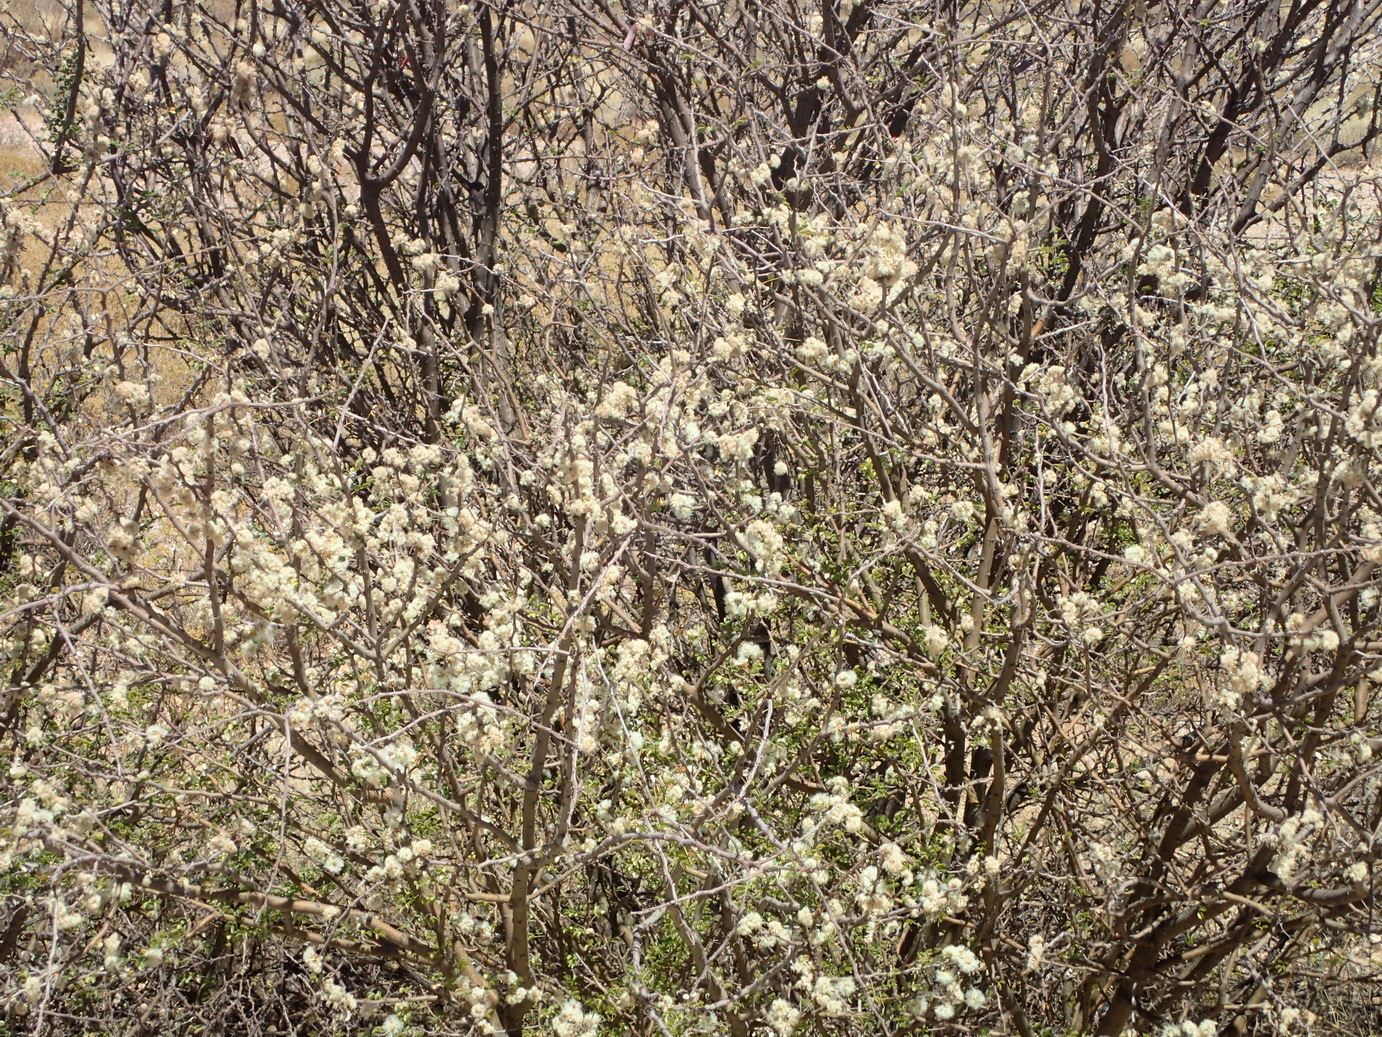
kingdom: Plantae
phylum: Tracheophyta
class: Magnoliopsida
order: Fabales
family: Fabaceae
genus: Senegalia
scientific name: Senegalia mellifera
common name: Hookthorn
